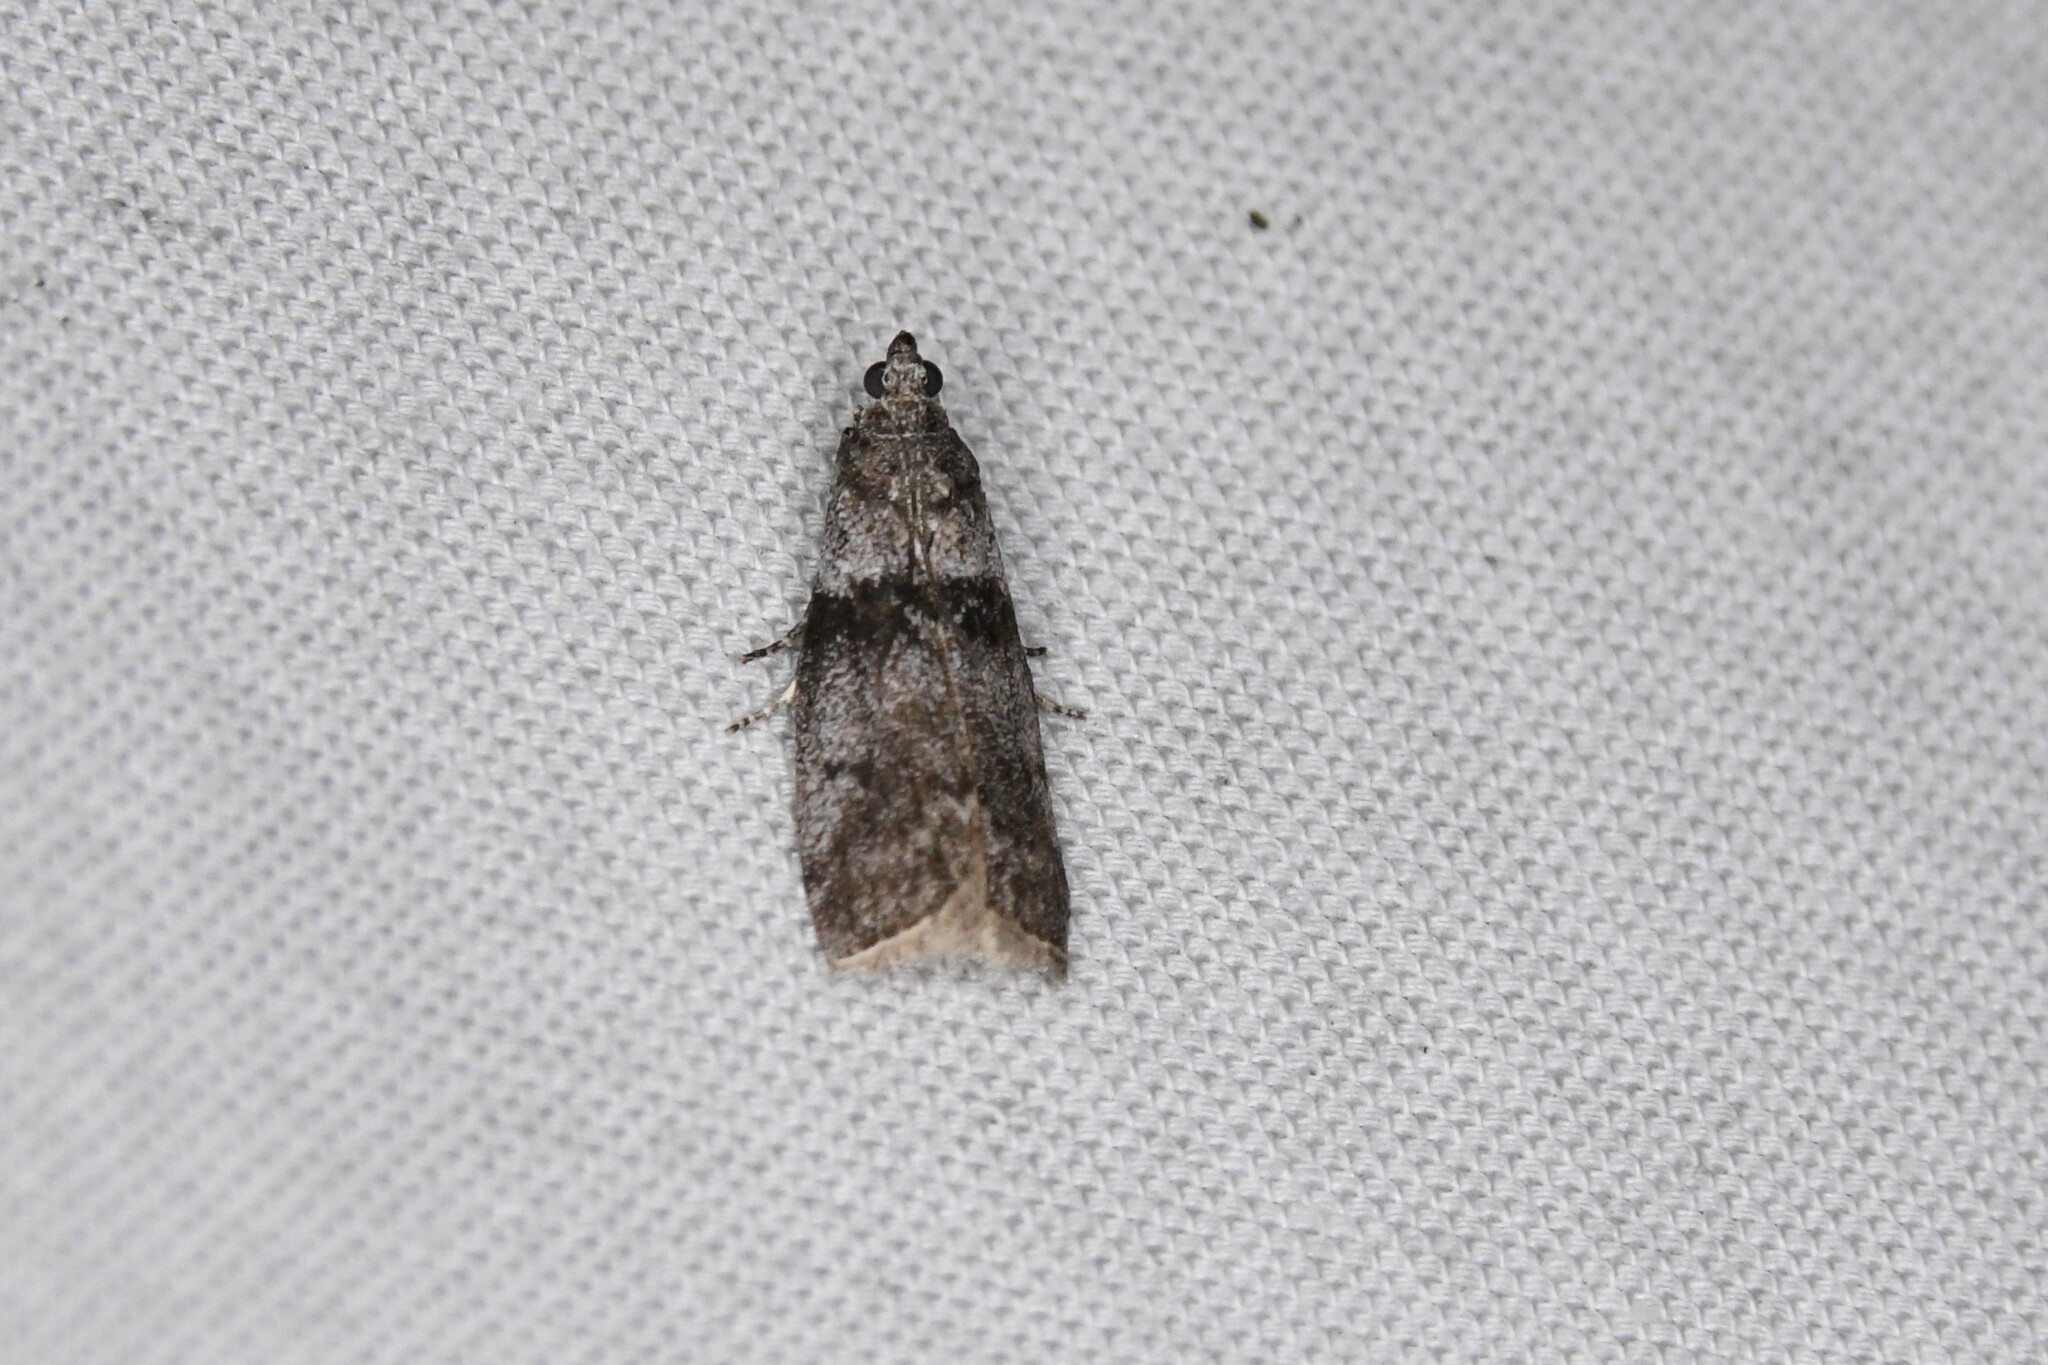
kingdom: Animalia
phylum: Arthropoda
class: Insecta
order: Lepidoptera
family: Pyralidae
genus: Meroptera
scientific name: Meroptera pravella
